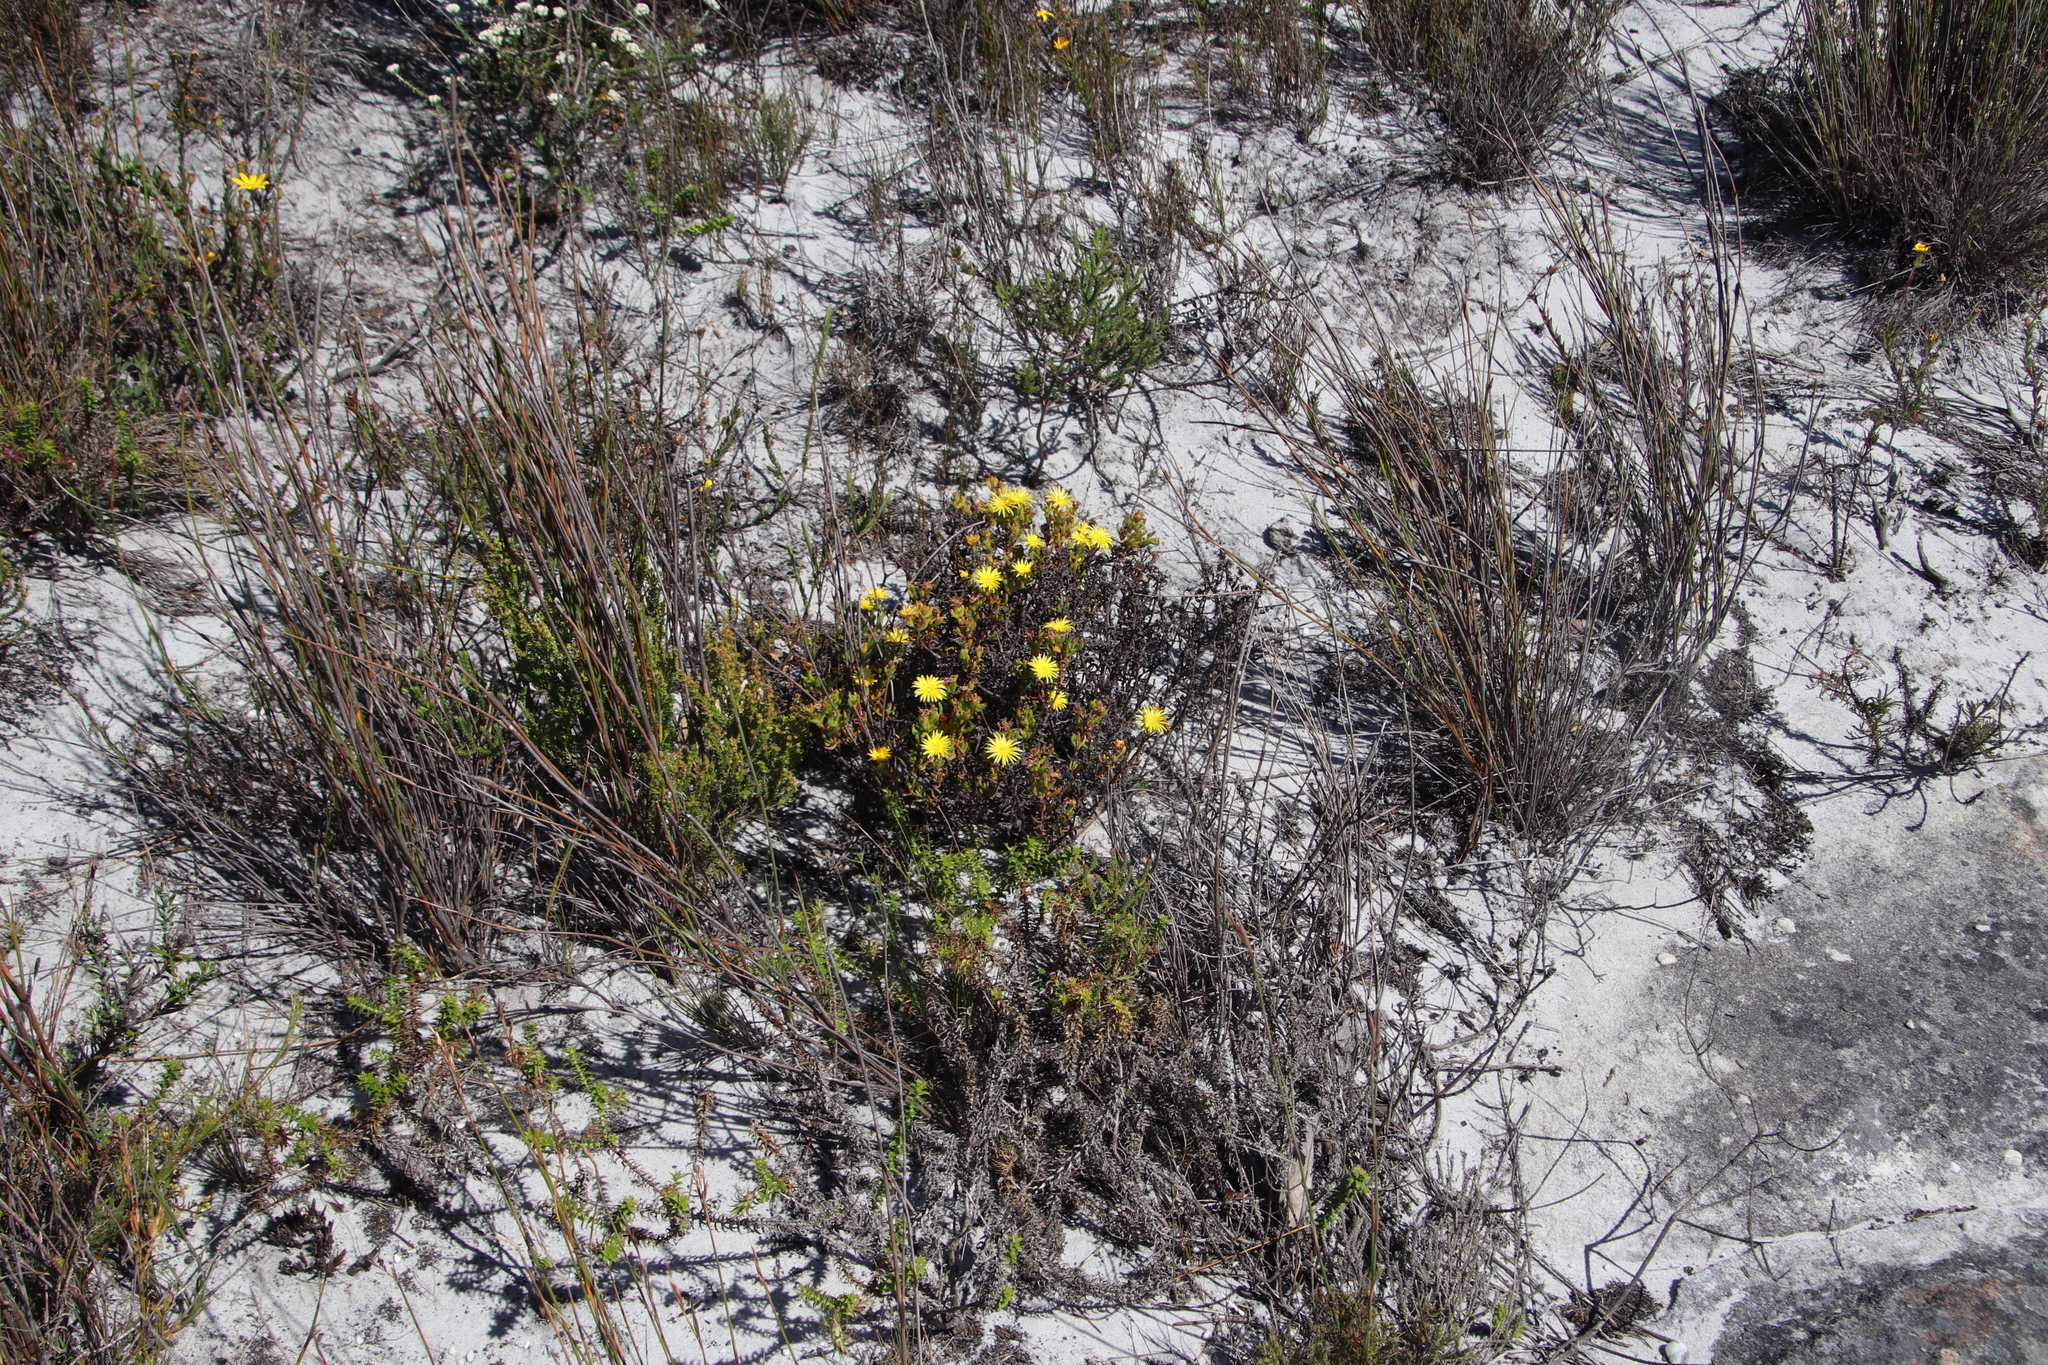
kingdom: Plantae
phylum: Tracheophyta
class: Magnoliopsida
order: Caryophyllales
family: Aizoaceae
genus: Lampranthus
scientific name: Lampranthus promontorii
